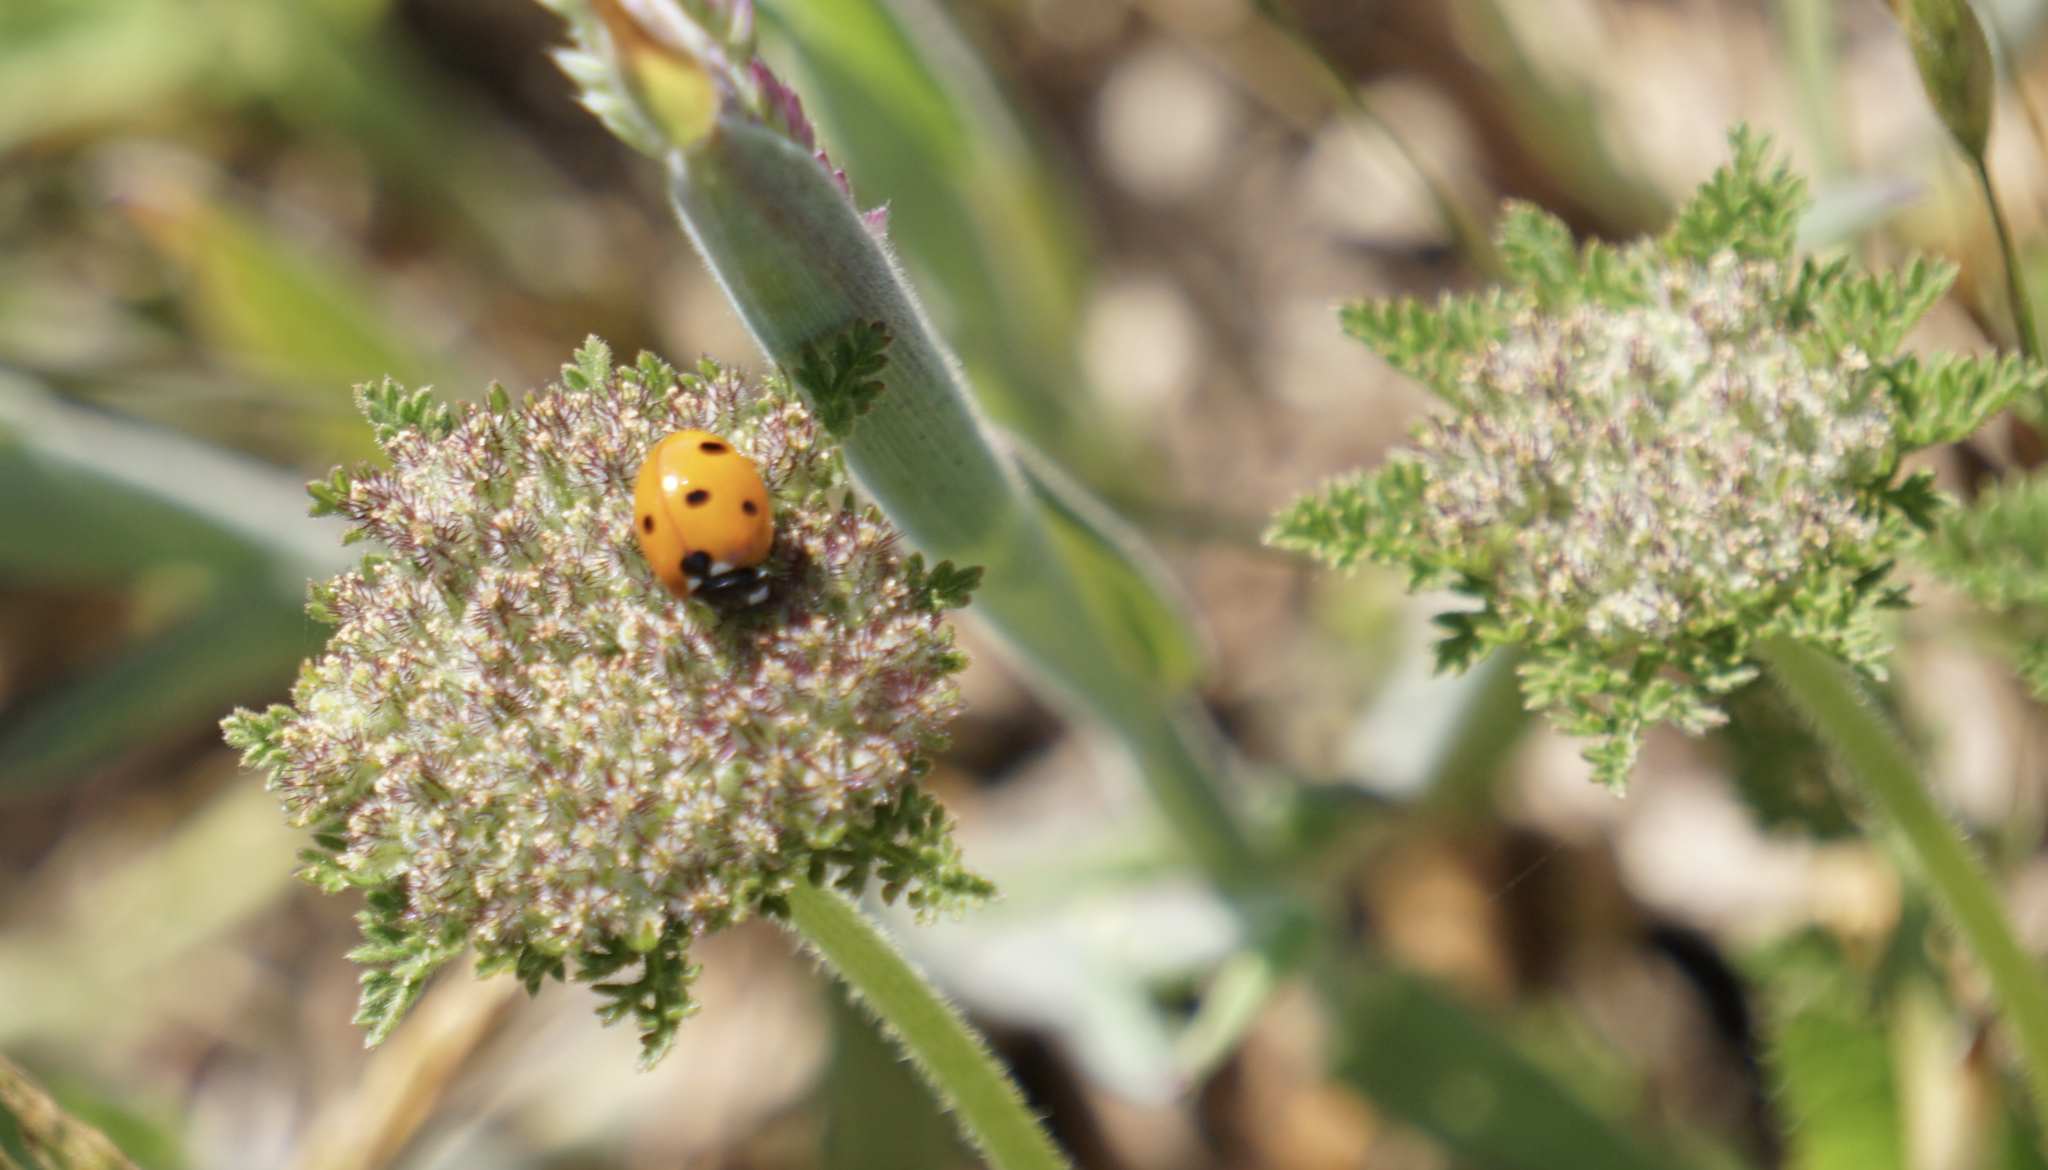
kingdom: Plantae
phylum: Tracheophyta
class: Magnoliopsida
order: Apiales
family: Apiaceae
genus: Daucus
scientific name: Daucus pusillus
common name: Southwest wild carrot
